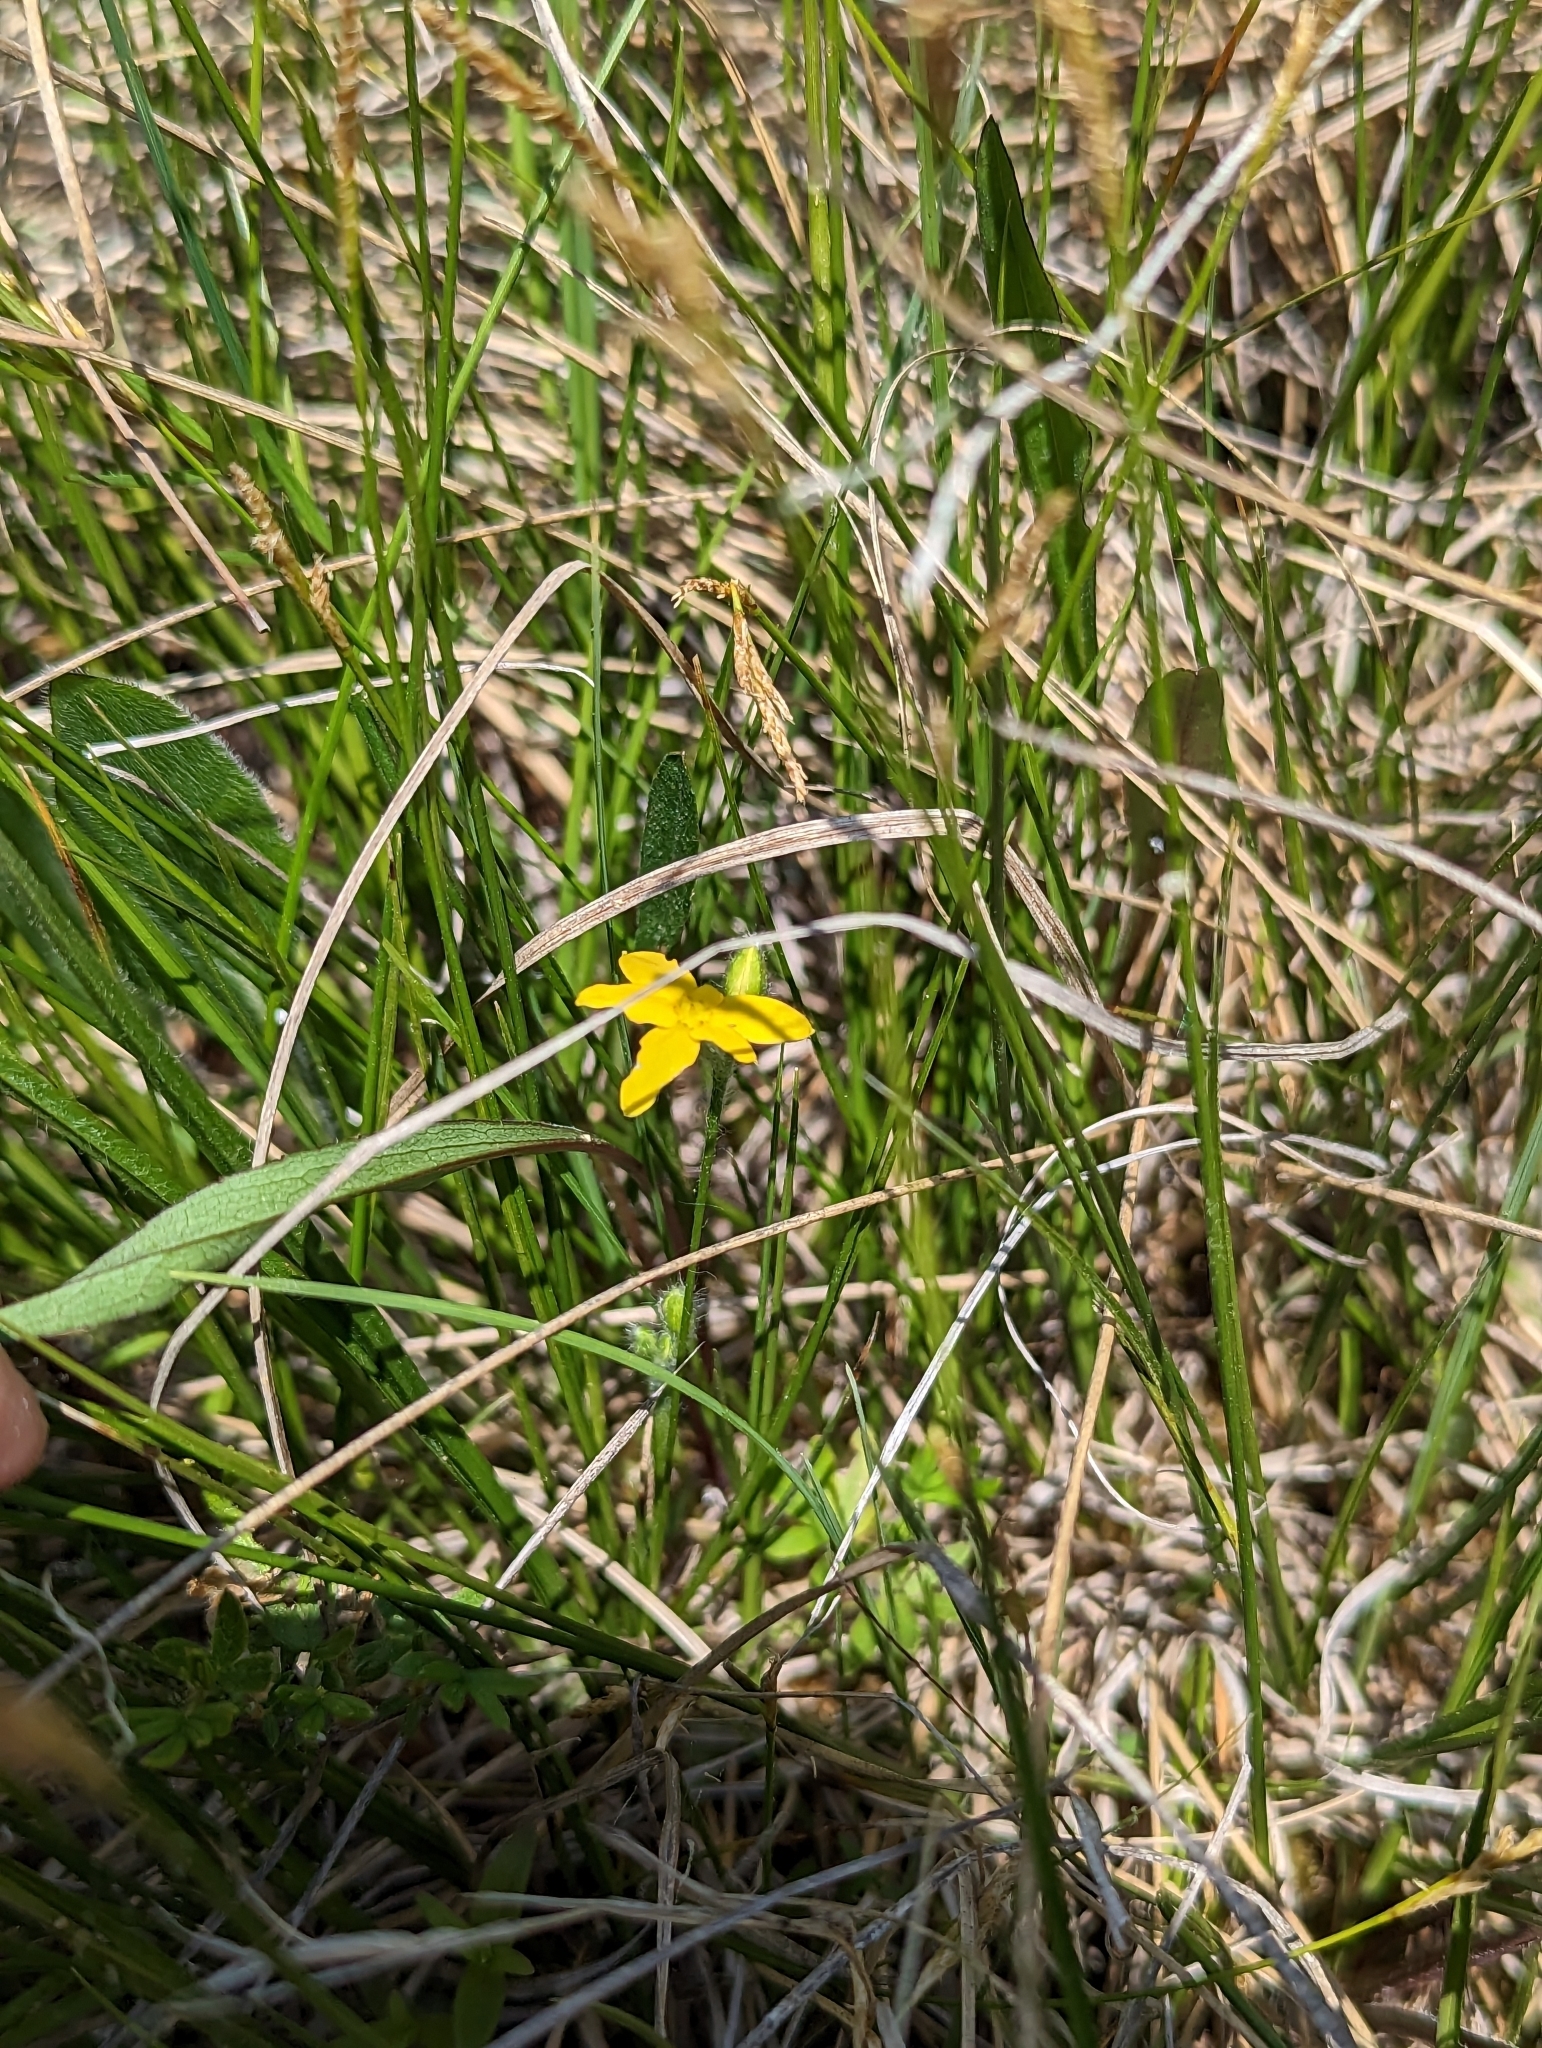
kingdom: Plantae
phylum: Tracheophyta
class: Liliopsida
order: Asparagales
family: Hypoxidaceae
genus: Hypoxis
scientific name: Hypoxis hirsuta
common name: Common goldstar
